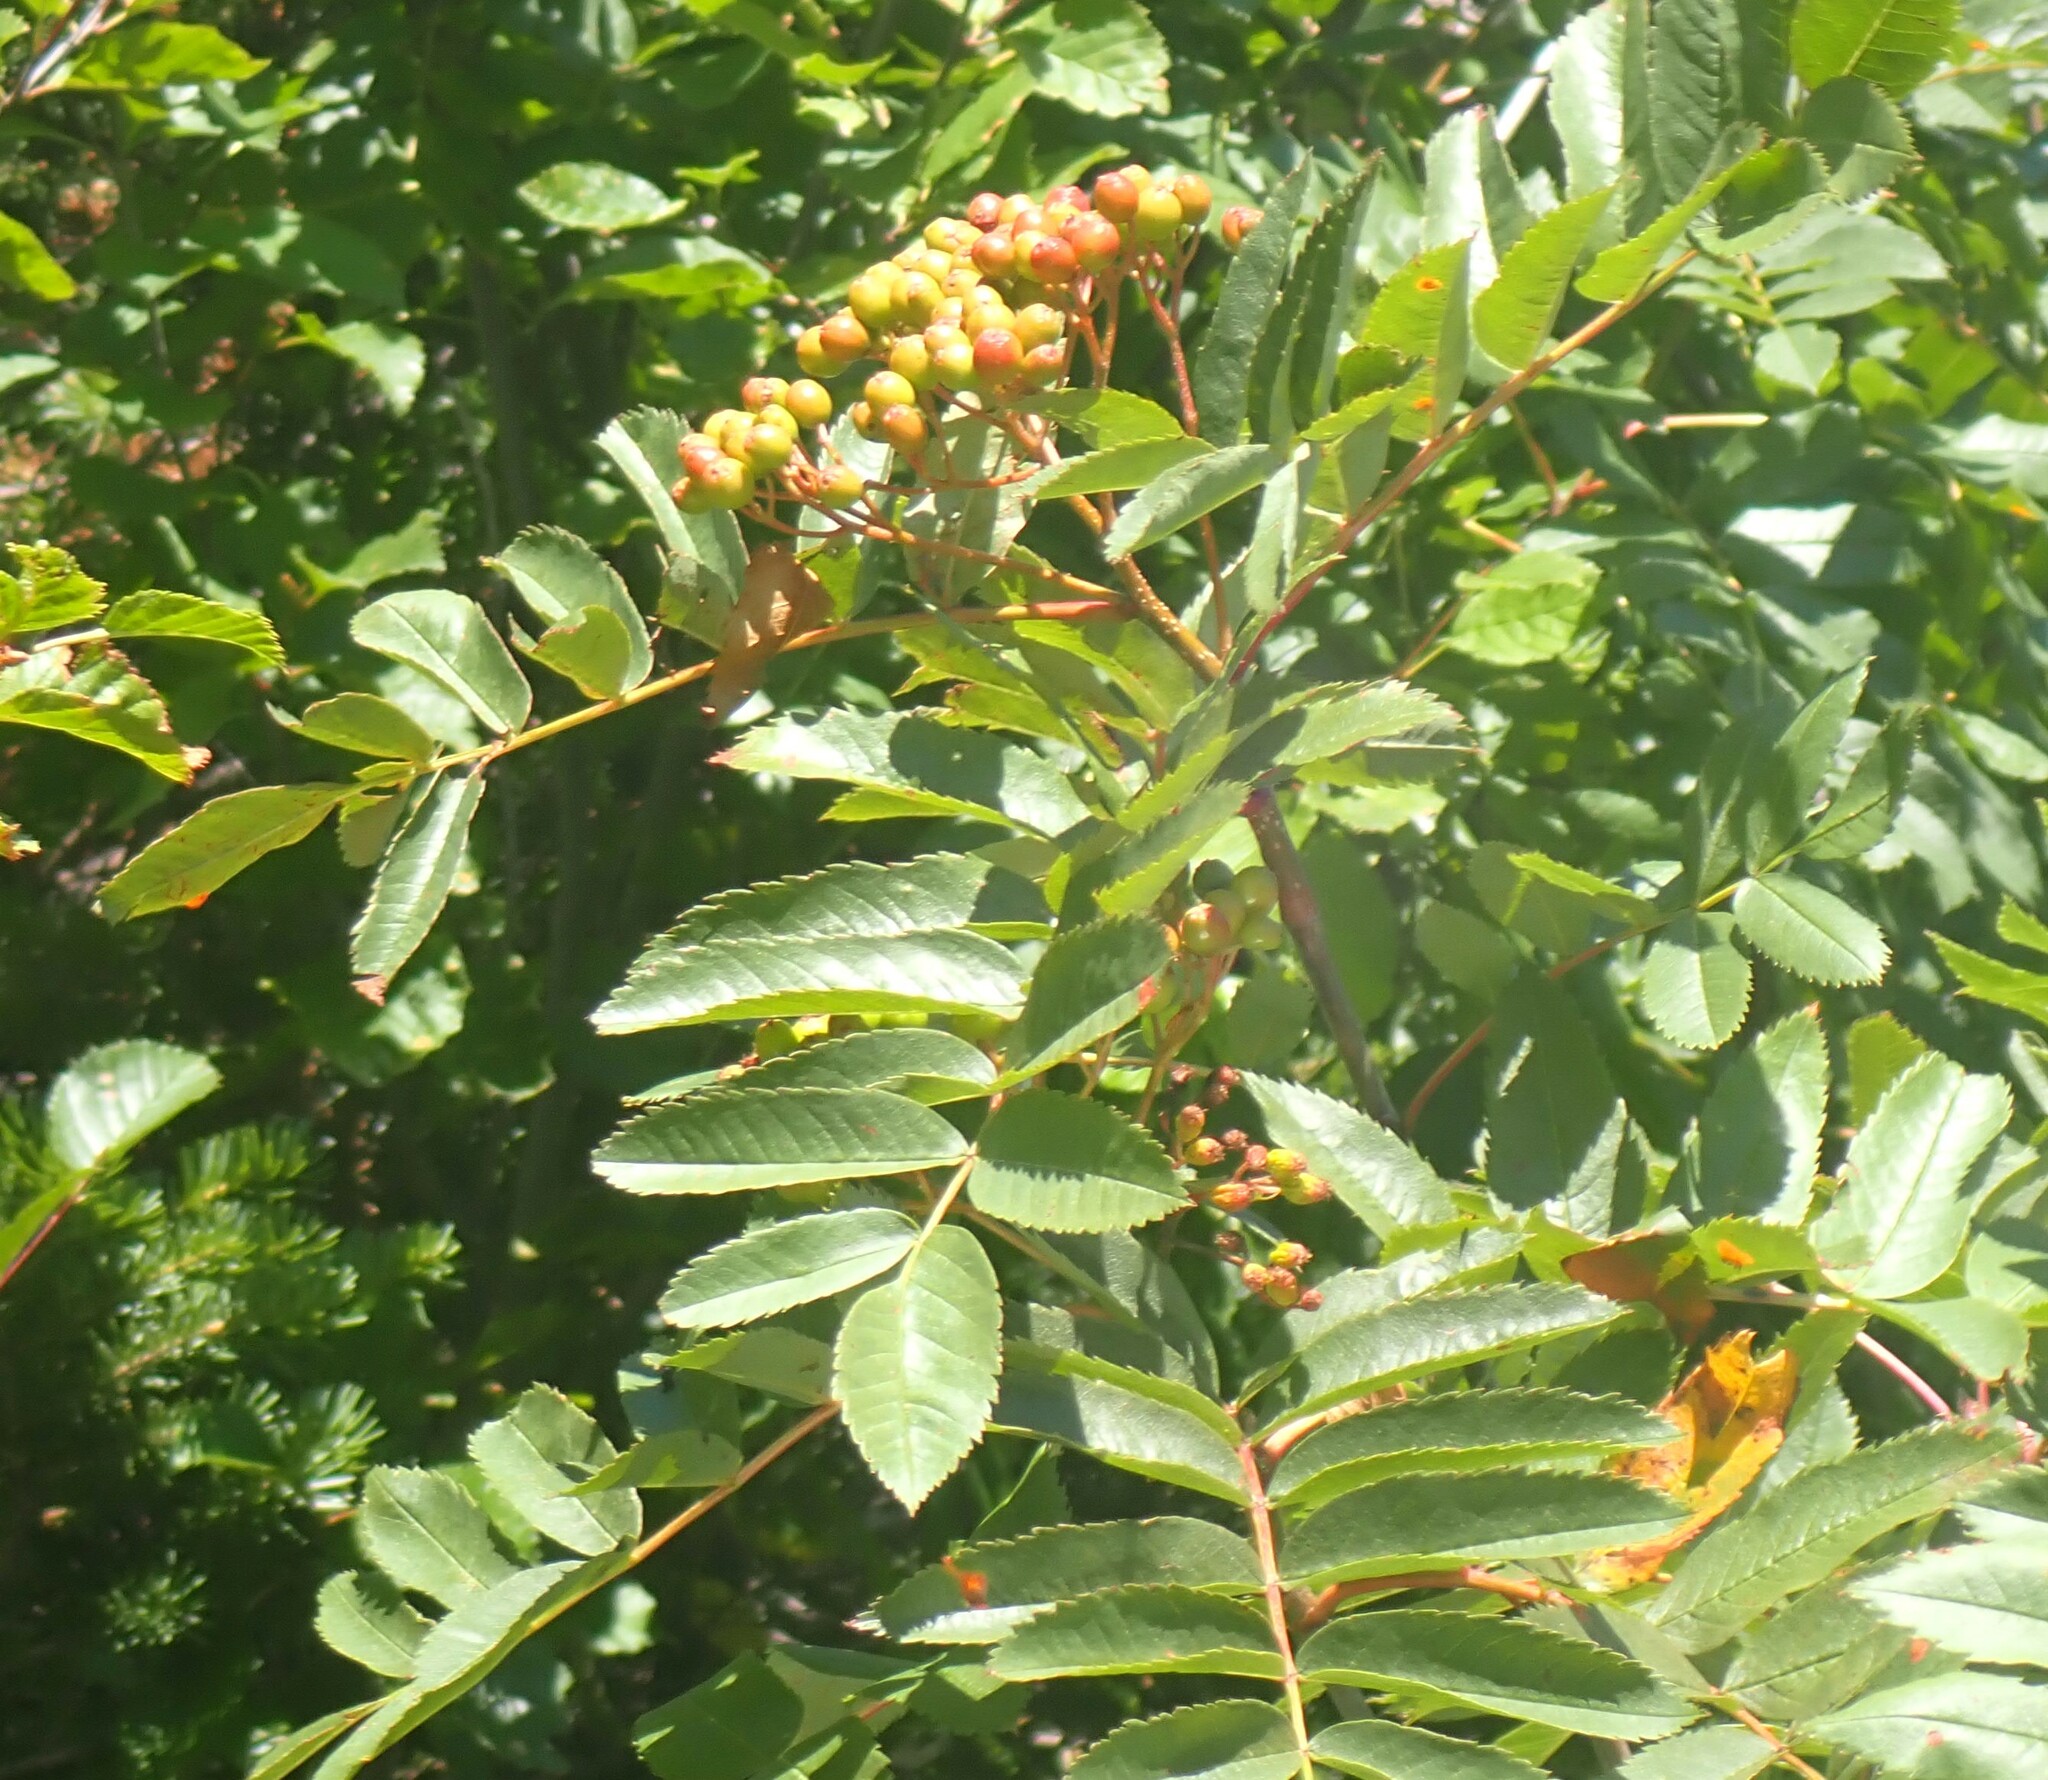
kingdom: Plantae
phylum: Tracheophyta
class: Magnoliopsida
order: Rosales
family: Rosaceae
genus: Sorbus
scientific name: Sorbus scopulina
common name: Greene's mountain-ash
